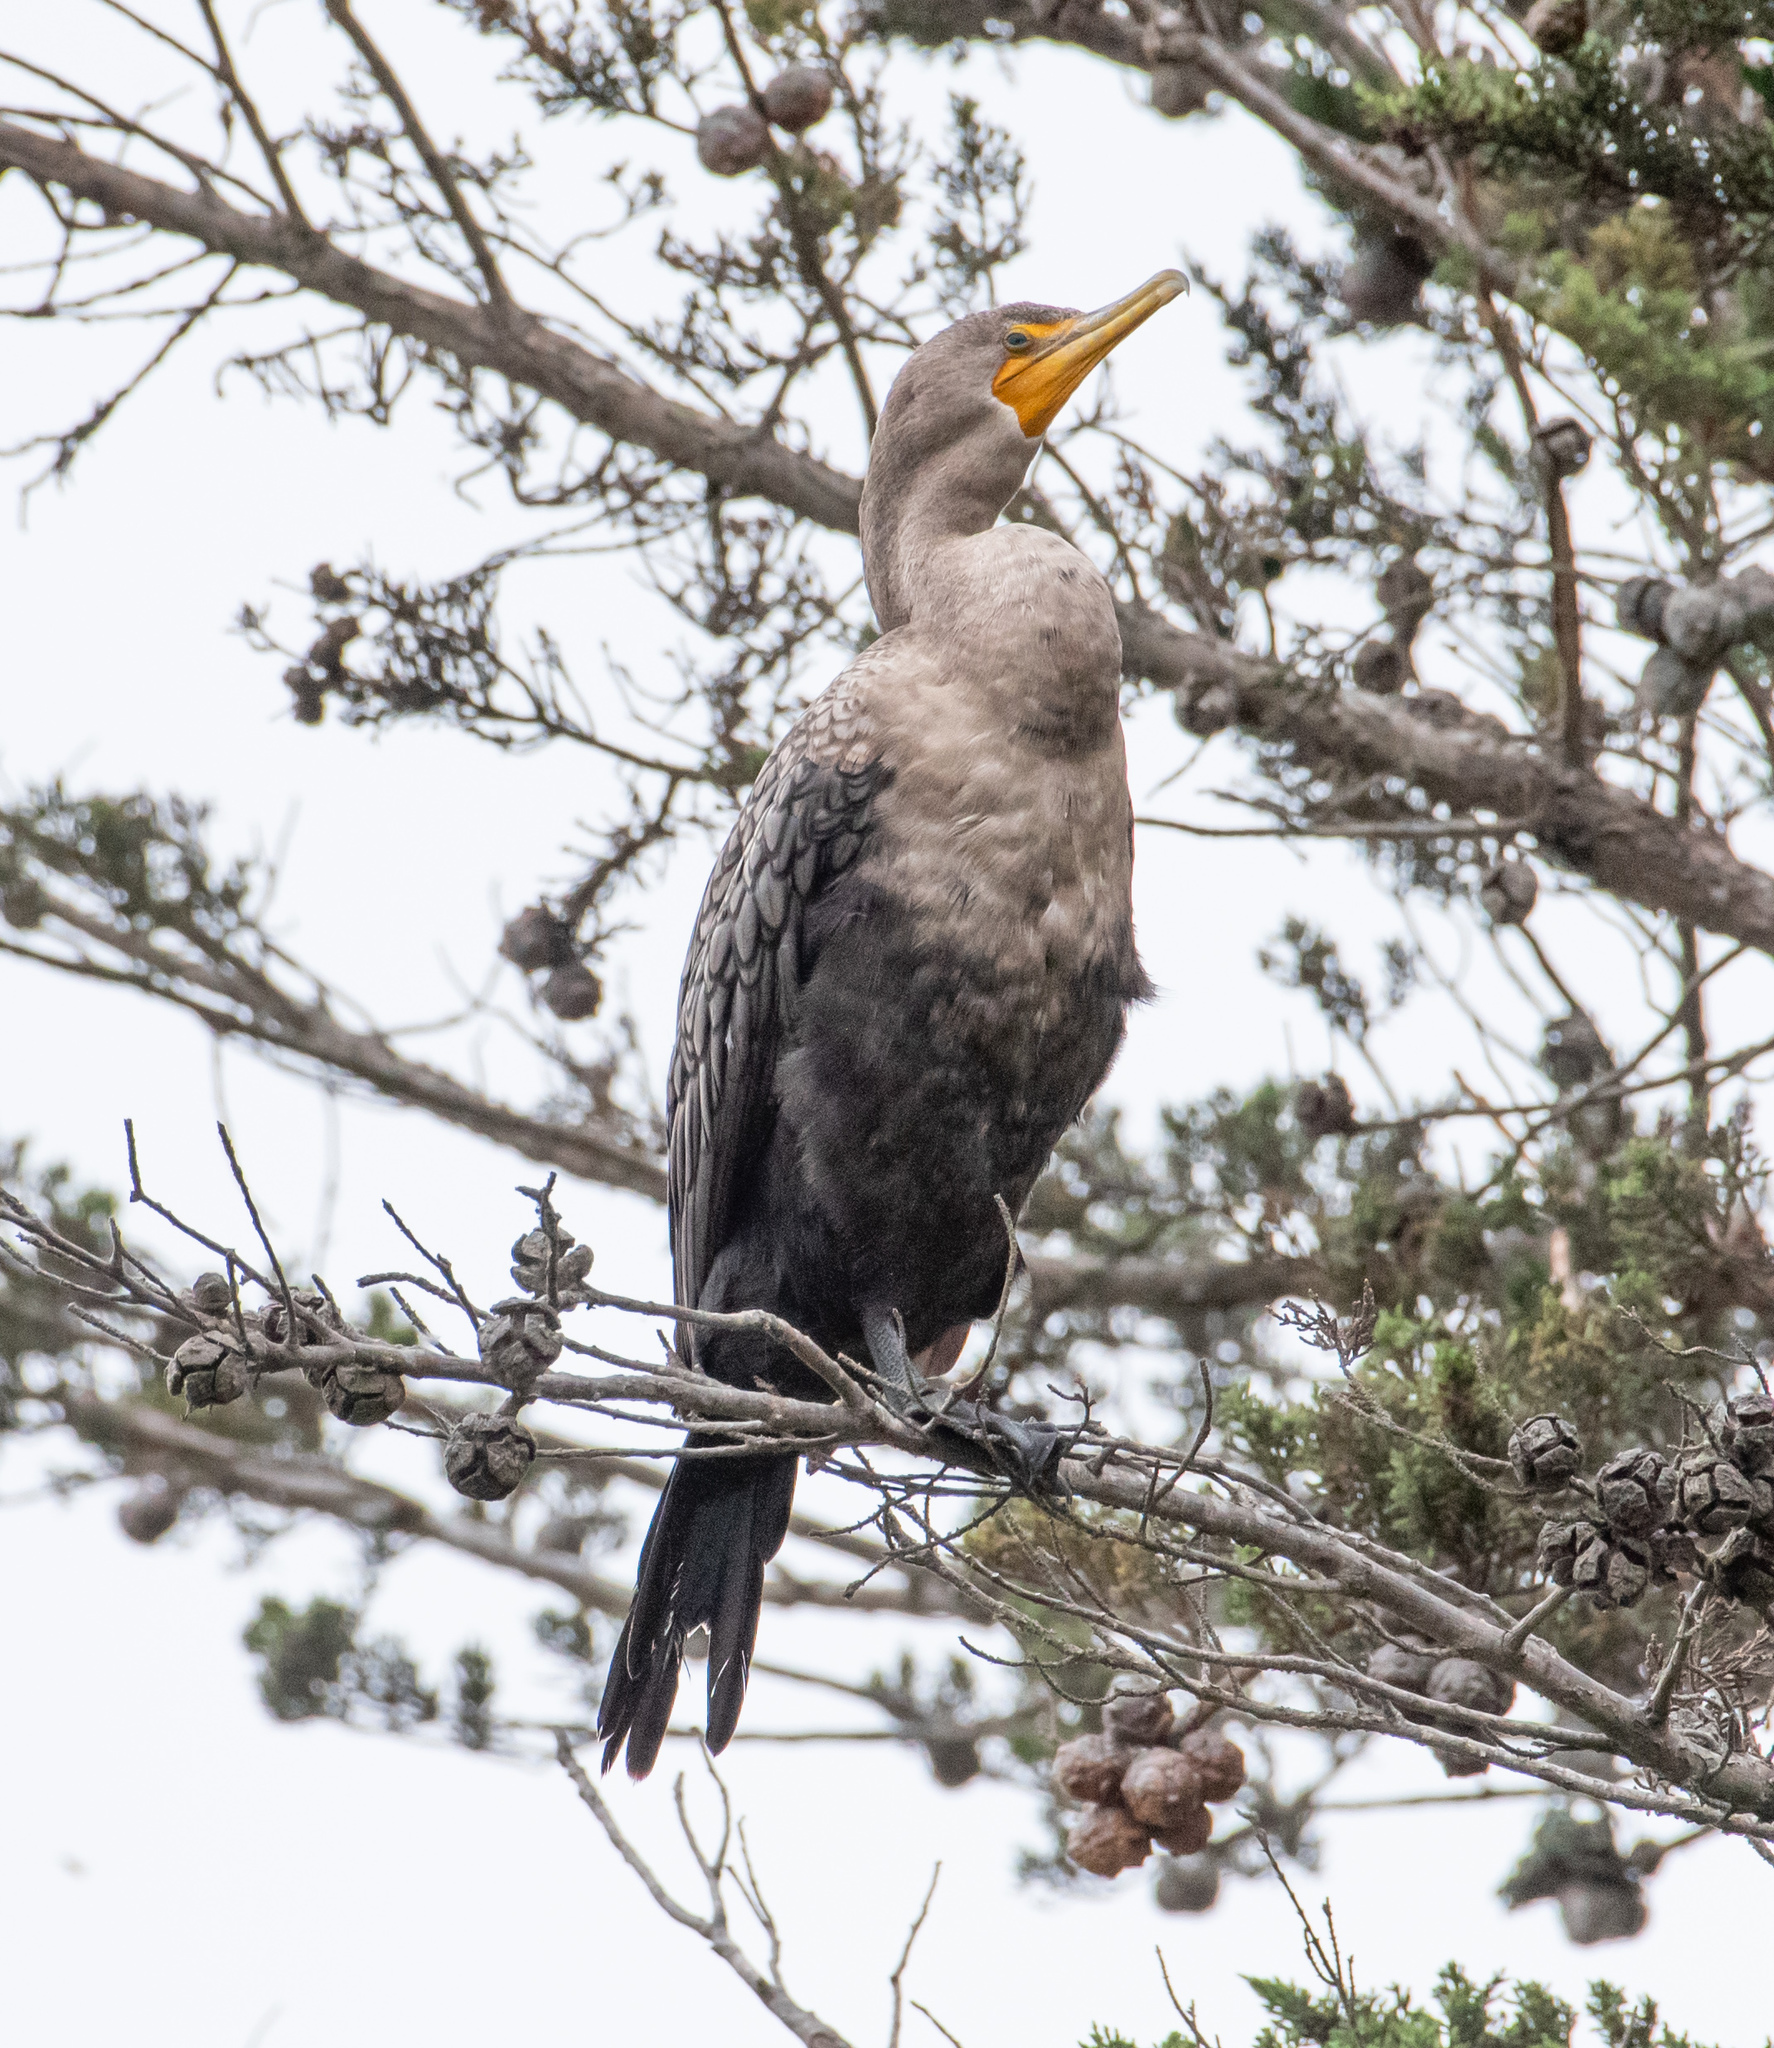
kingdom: Animalia
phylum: Chordata
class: Aves
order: Suliformes
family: Phalacrocoracidae
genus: Phalacrocorax
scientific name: Phalacrocorax auritus
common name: Double-crested cormorant
